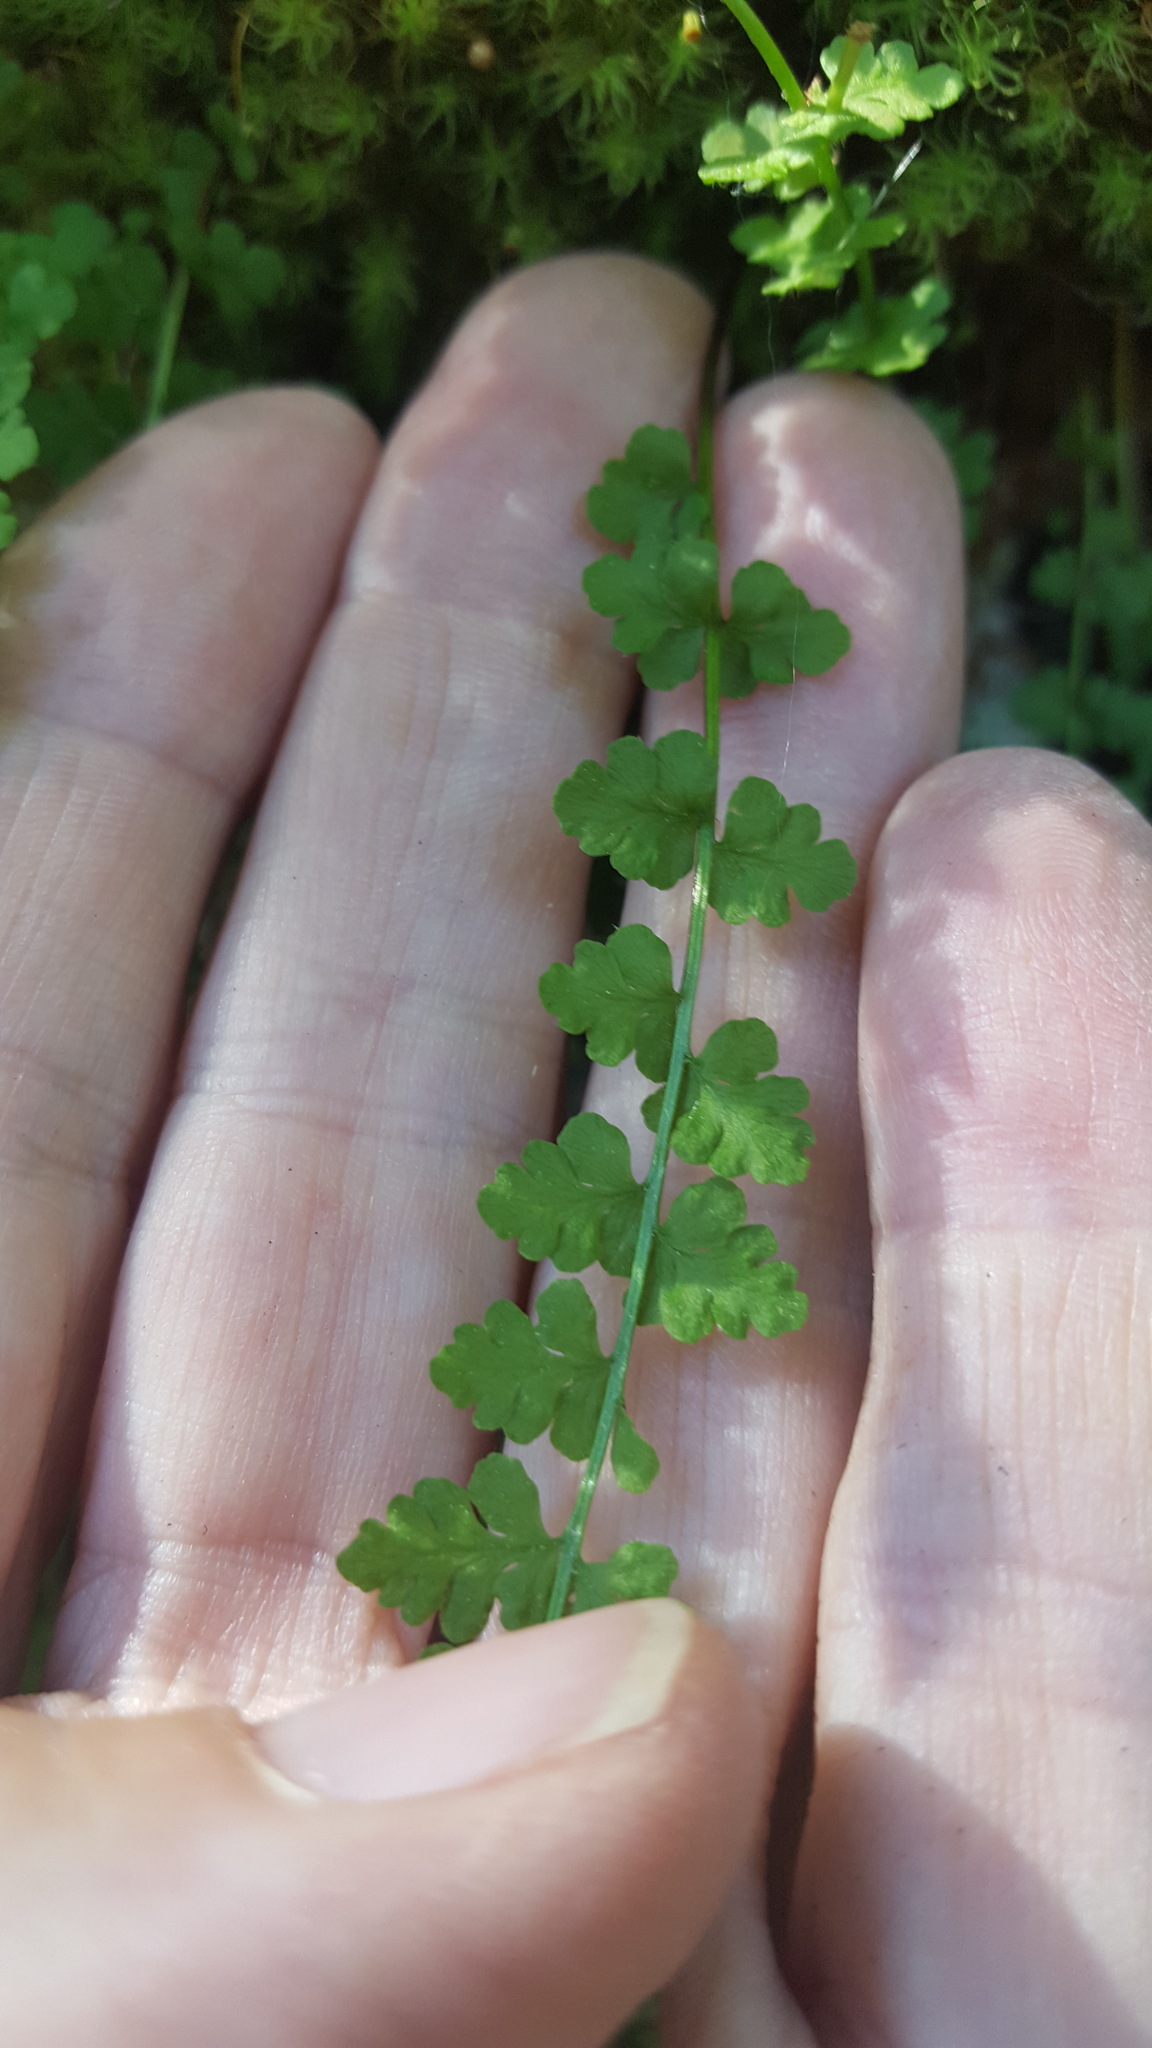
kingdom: Plantae
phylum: Tracheophyta
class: Polypodiopsida
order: Polypodiales
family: Woodsiaceae
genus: Woodsia
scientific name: Woodsia alpina
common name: Alpine woodsia
